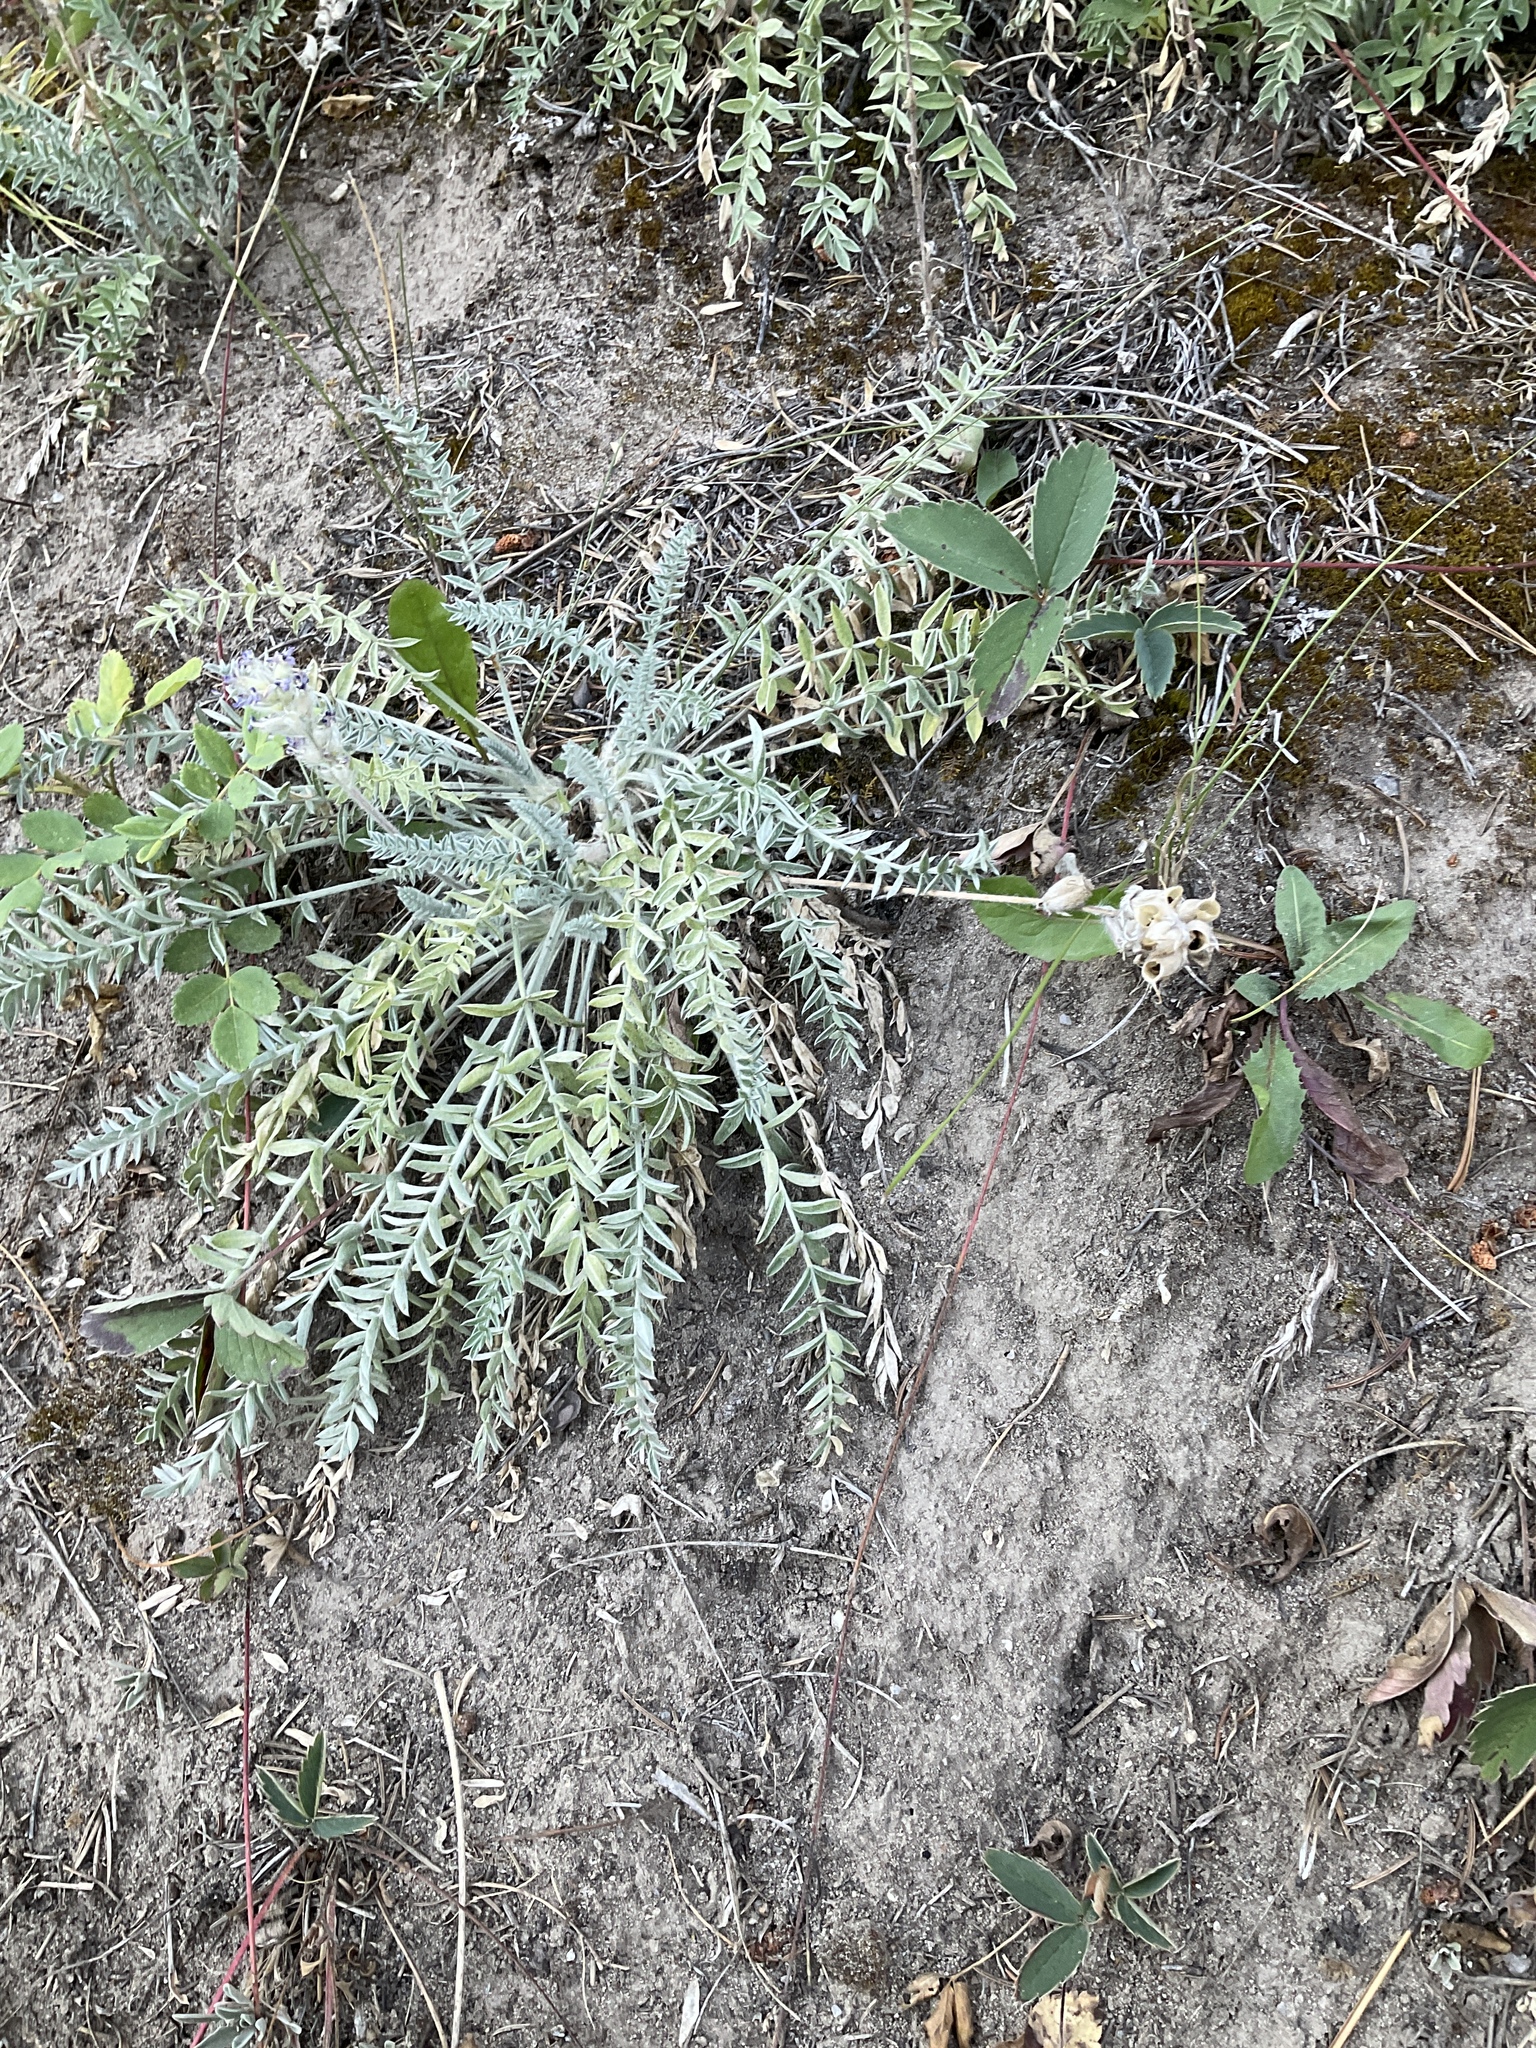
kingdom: Plantae
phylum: Tracheophyta
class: Magnoliopsida
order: Fabales
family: Fabaceae
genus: Oxytropis
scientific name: Oxytropis splendens
